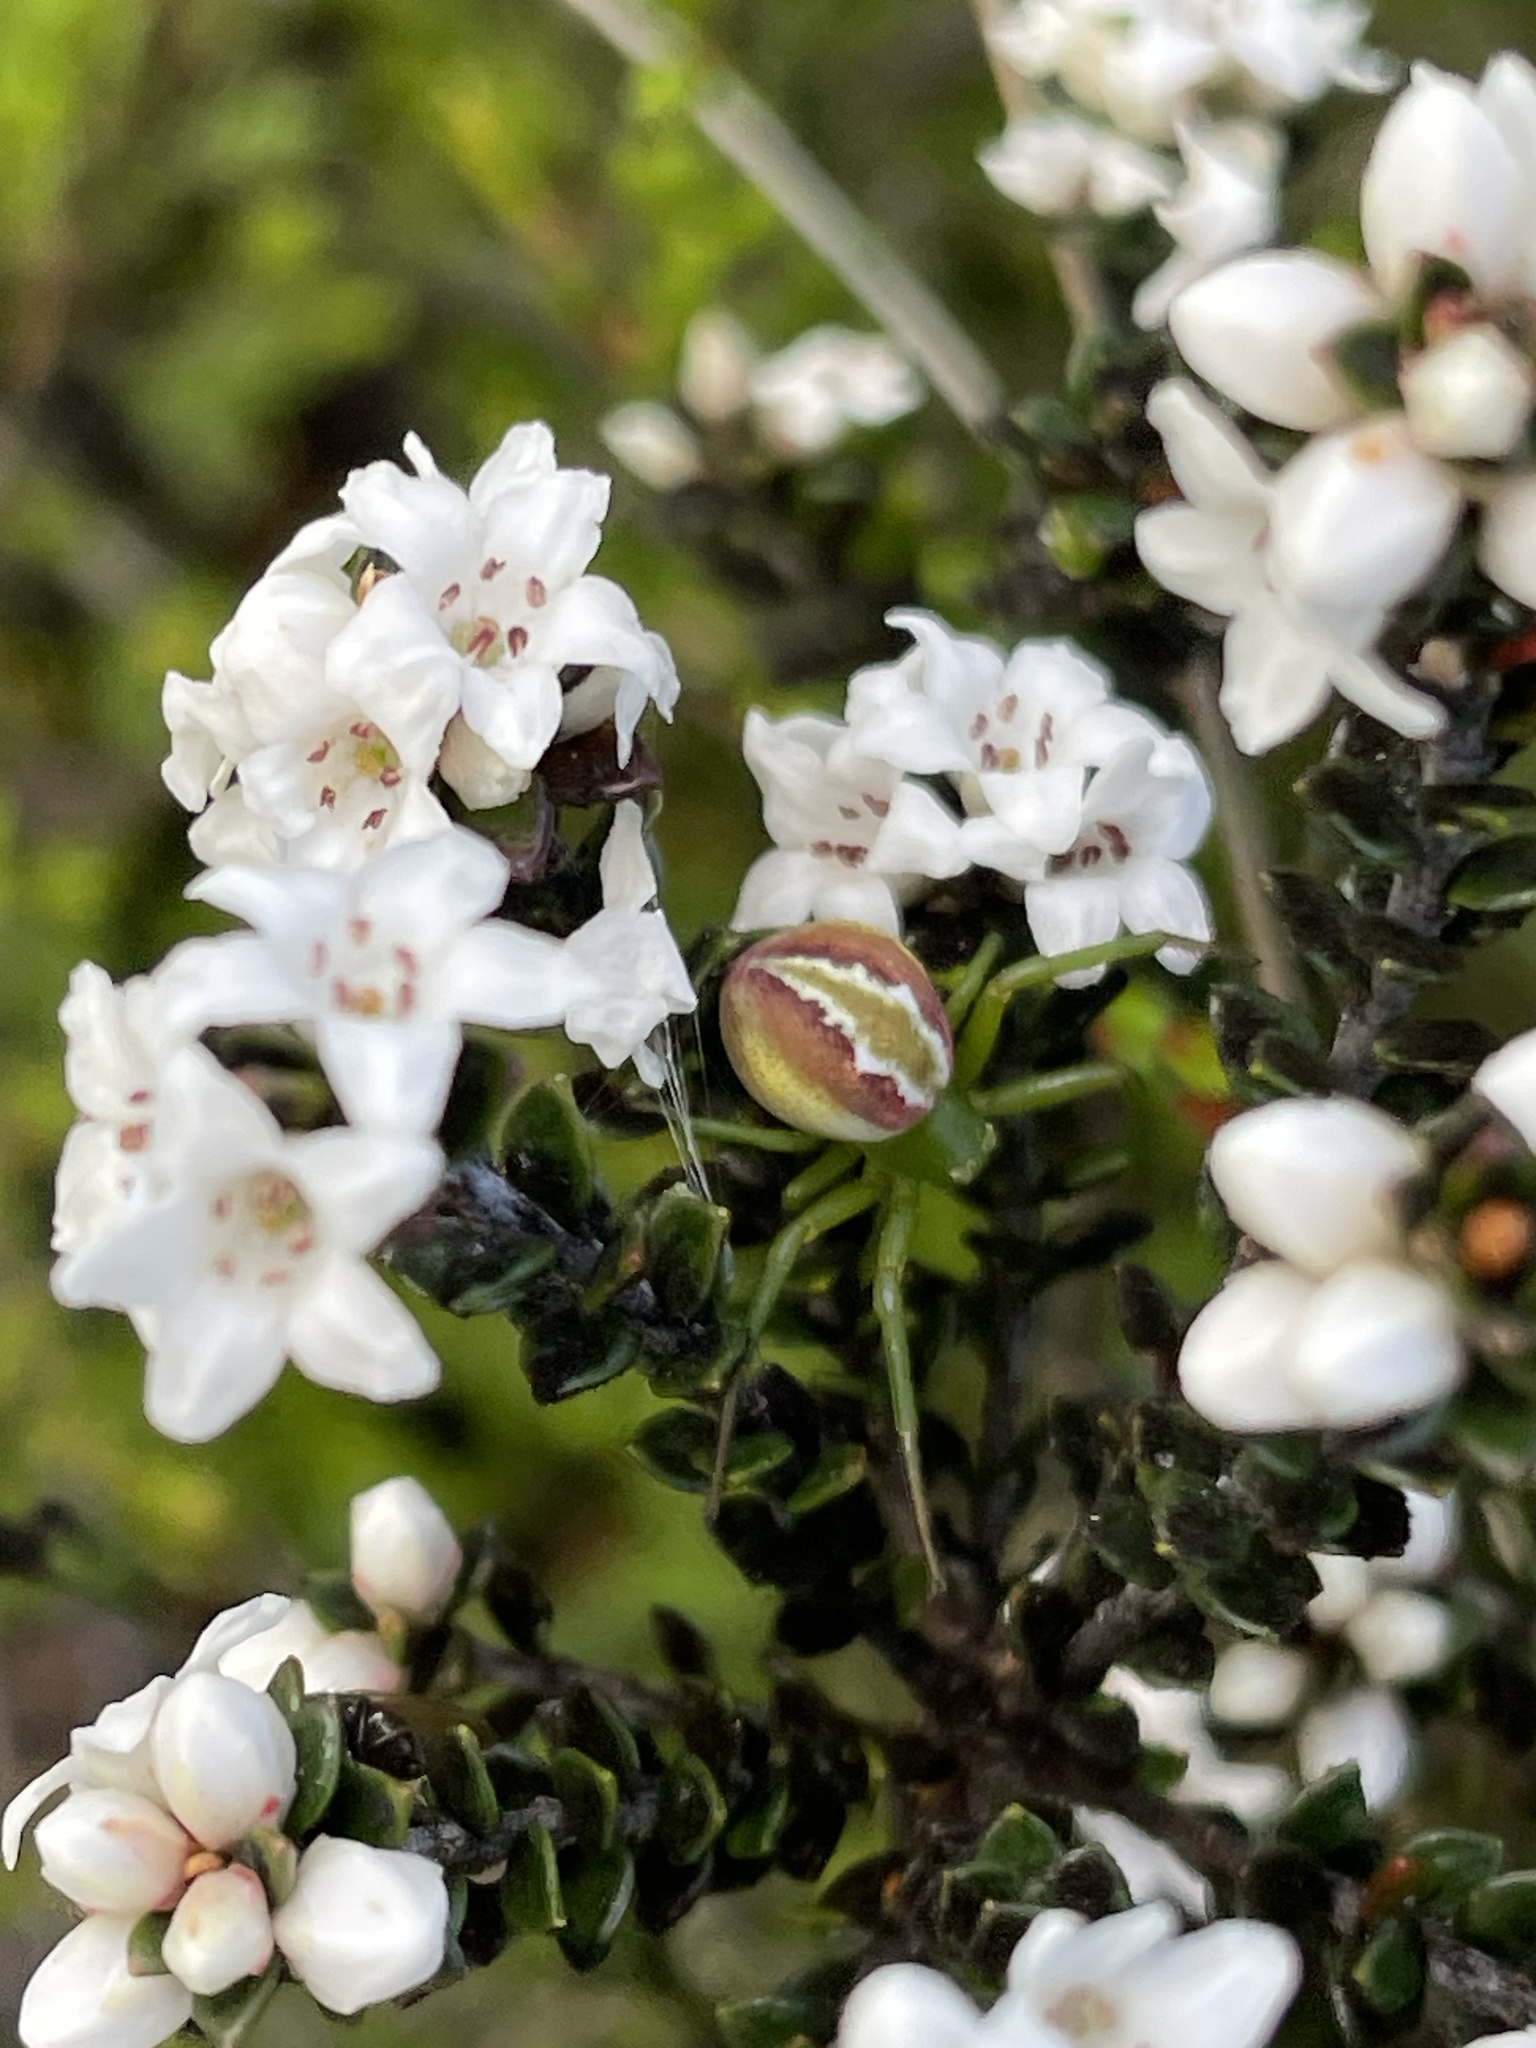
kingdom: Animalia
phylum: Arthropoda
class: Arachnida
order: Araneae
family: Thomisidae
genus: Australomisidia
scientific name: Australomisidia rosea
